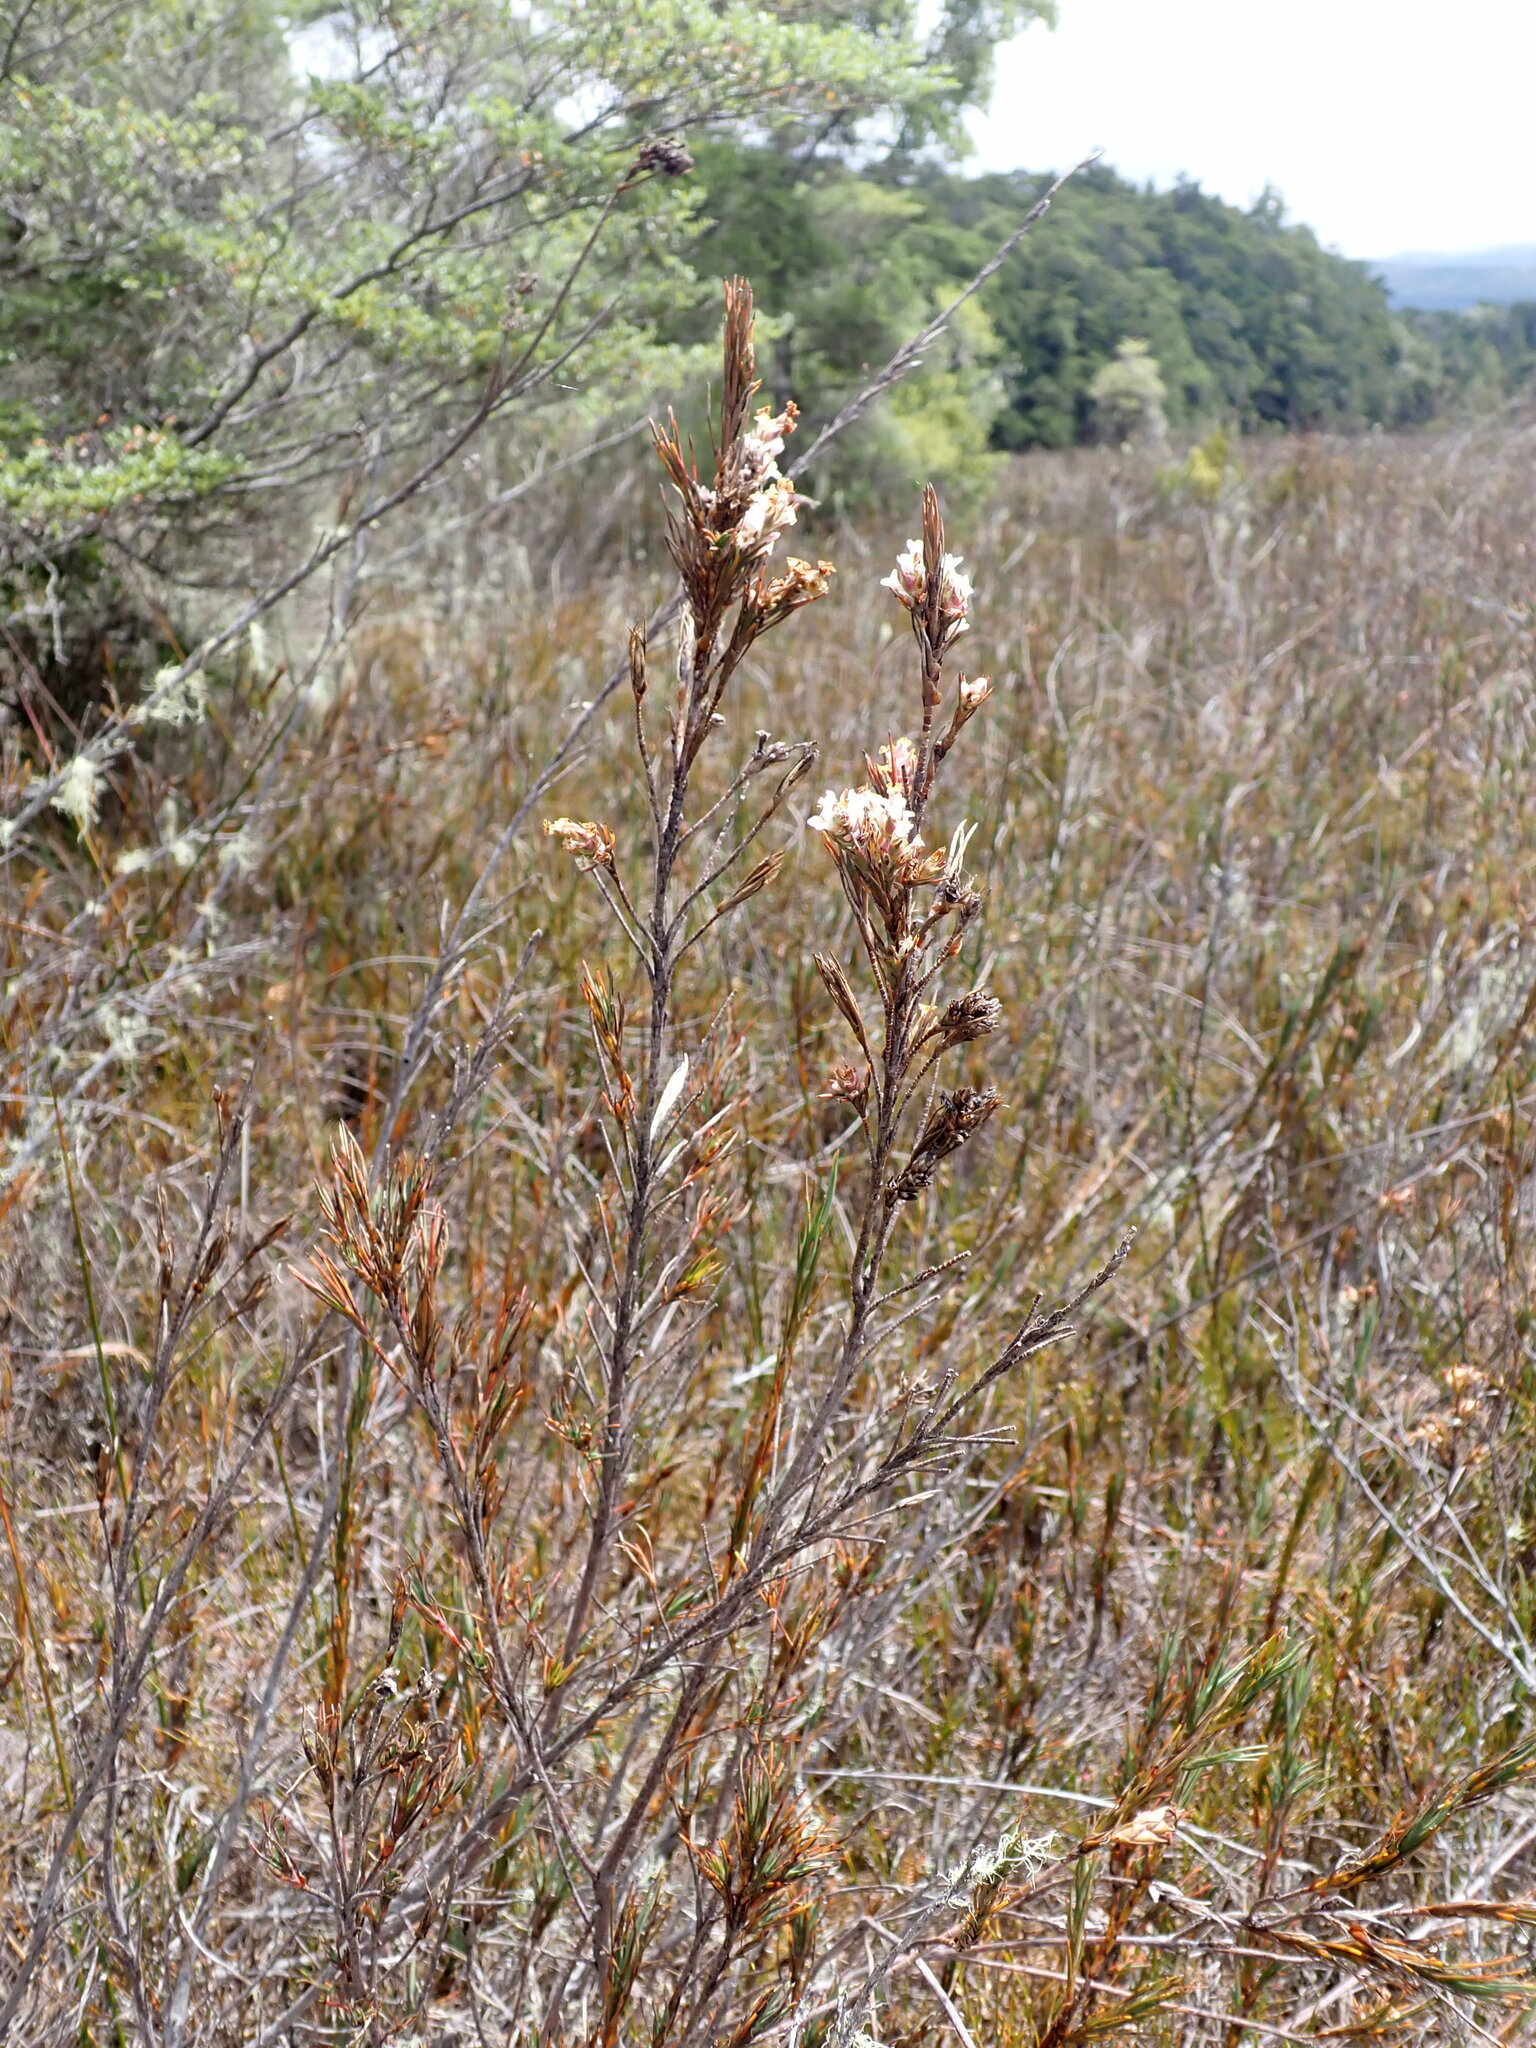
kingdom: Plantae
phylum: Tracheophyta
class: Magnoliopsida
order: Ericales
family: Ericaceae
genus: Dracophyllum
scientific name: Dracophyllum oliveri
